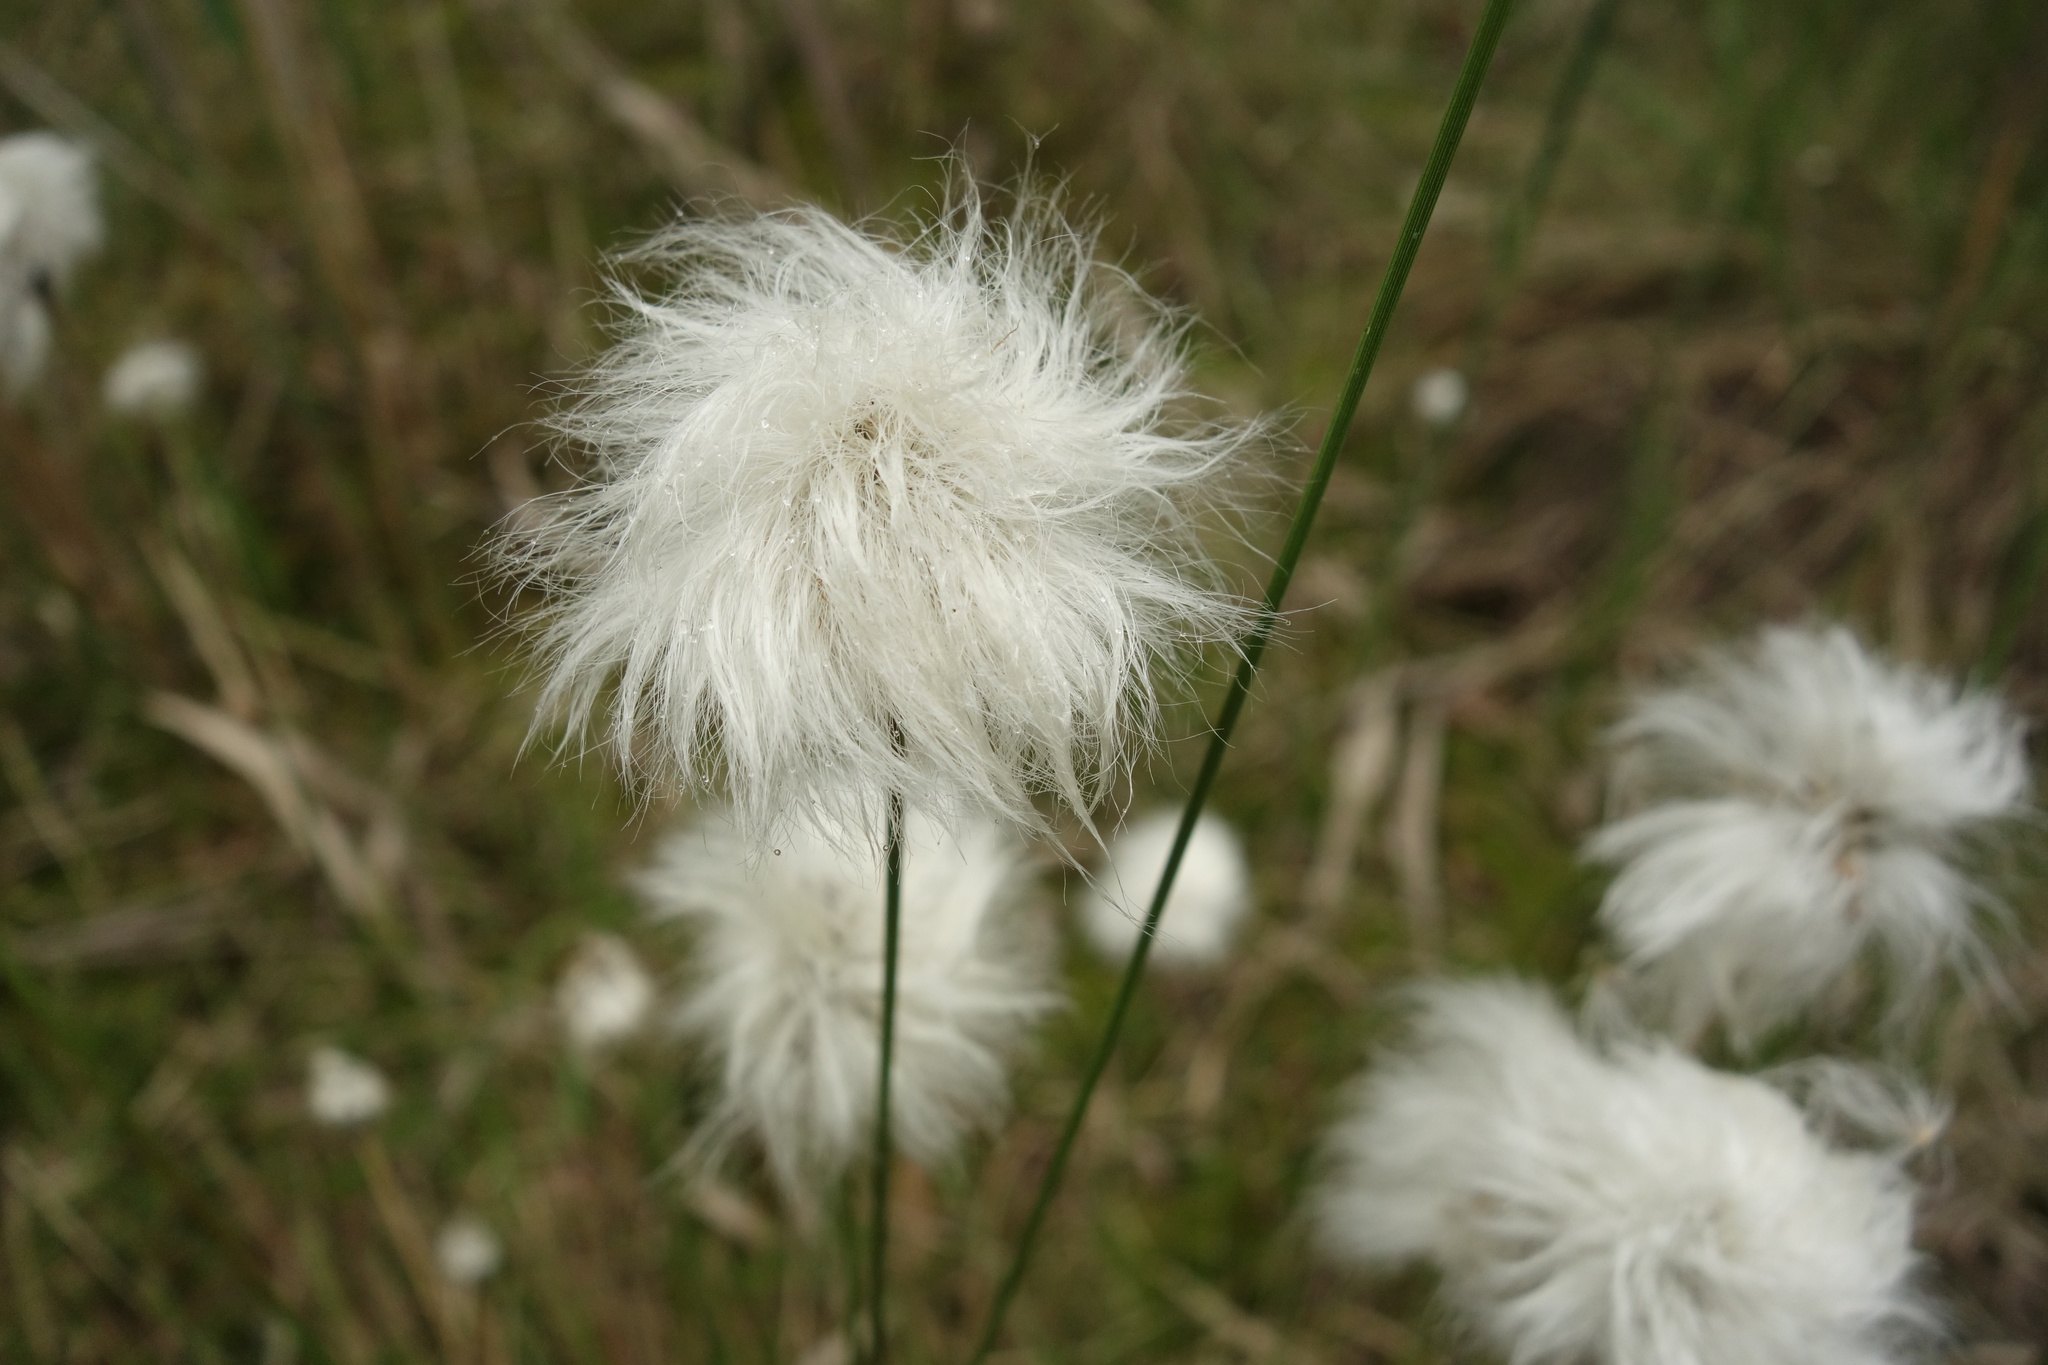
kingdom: Plantae
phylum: Tracheophyta
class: Liliopsida
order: Poales
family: Cyperaceae
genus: Eriophorum
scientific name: Eriophorum vaginatum
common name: Hare's-tail cottongrass
